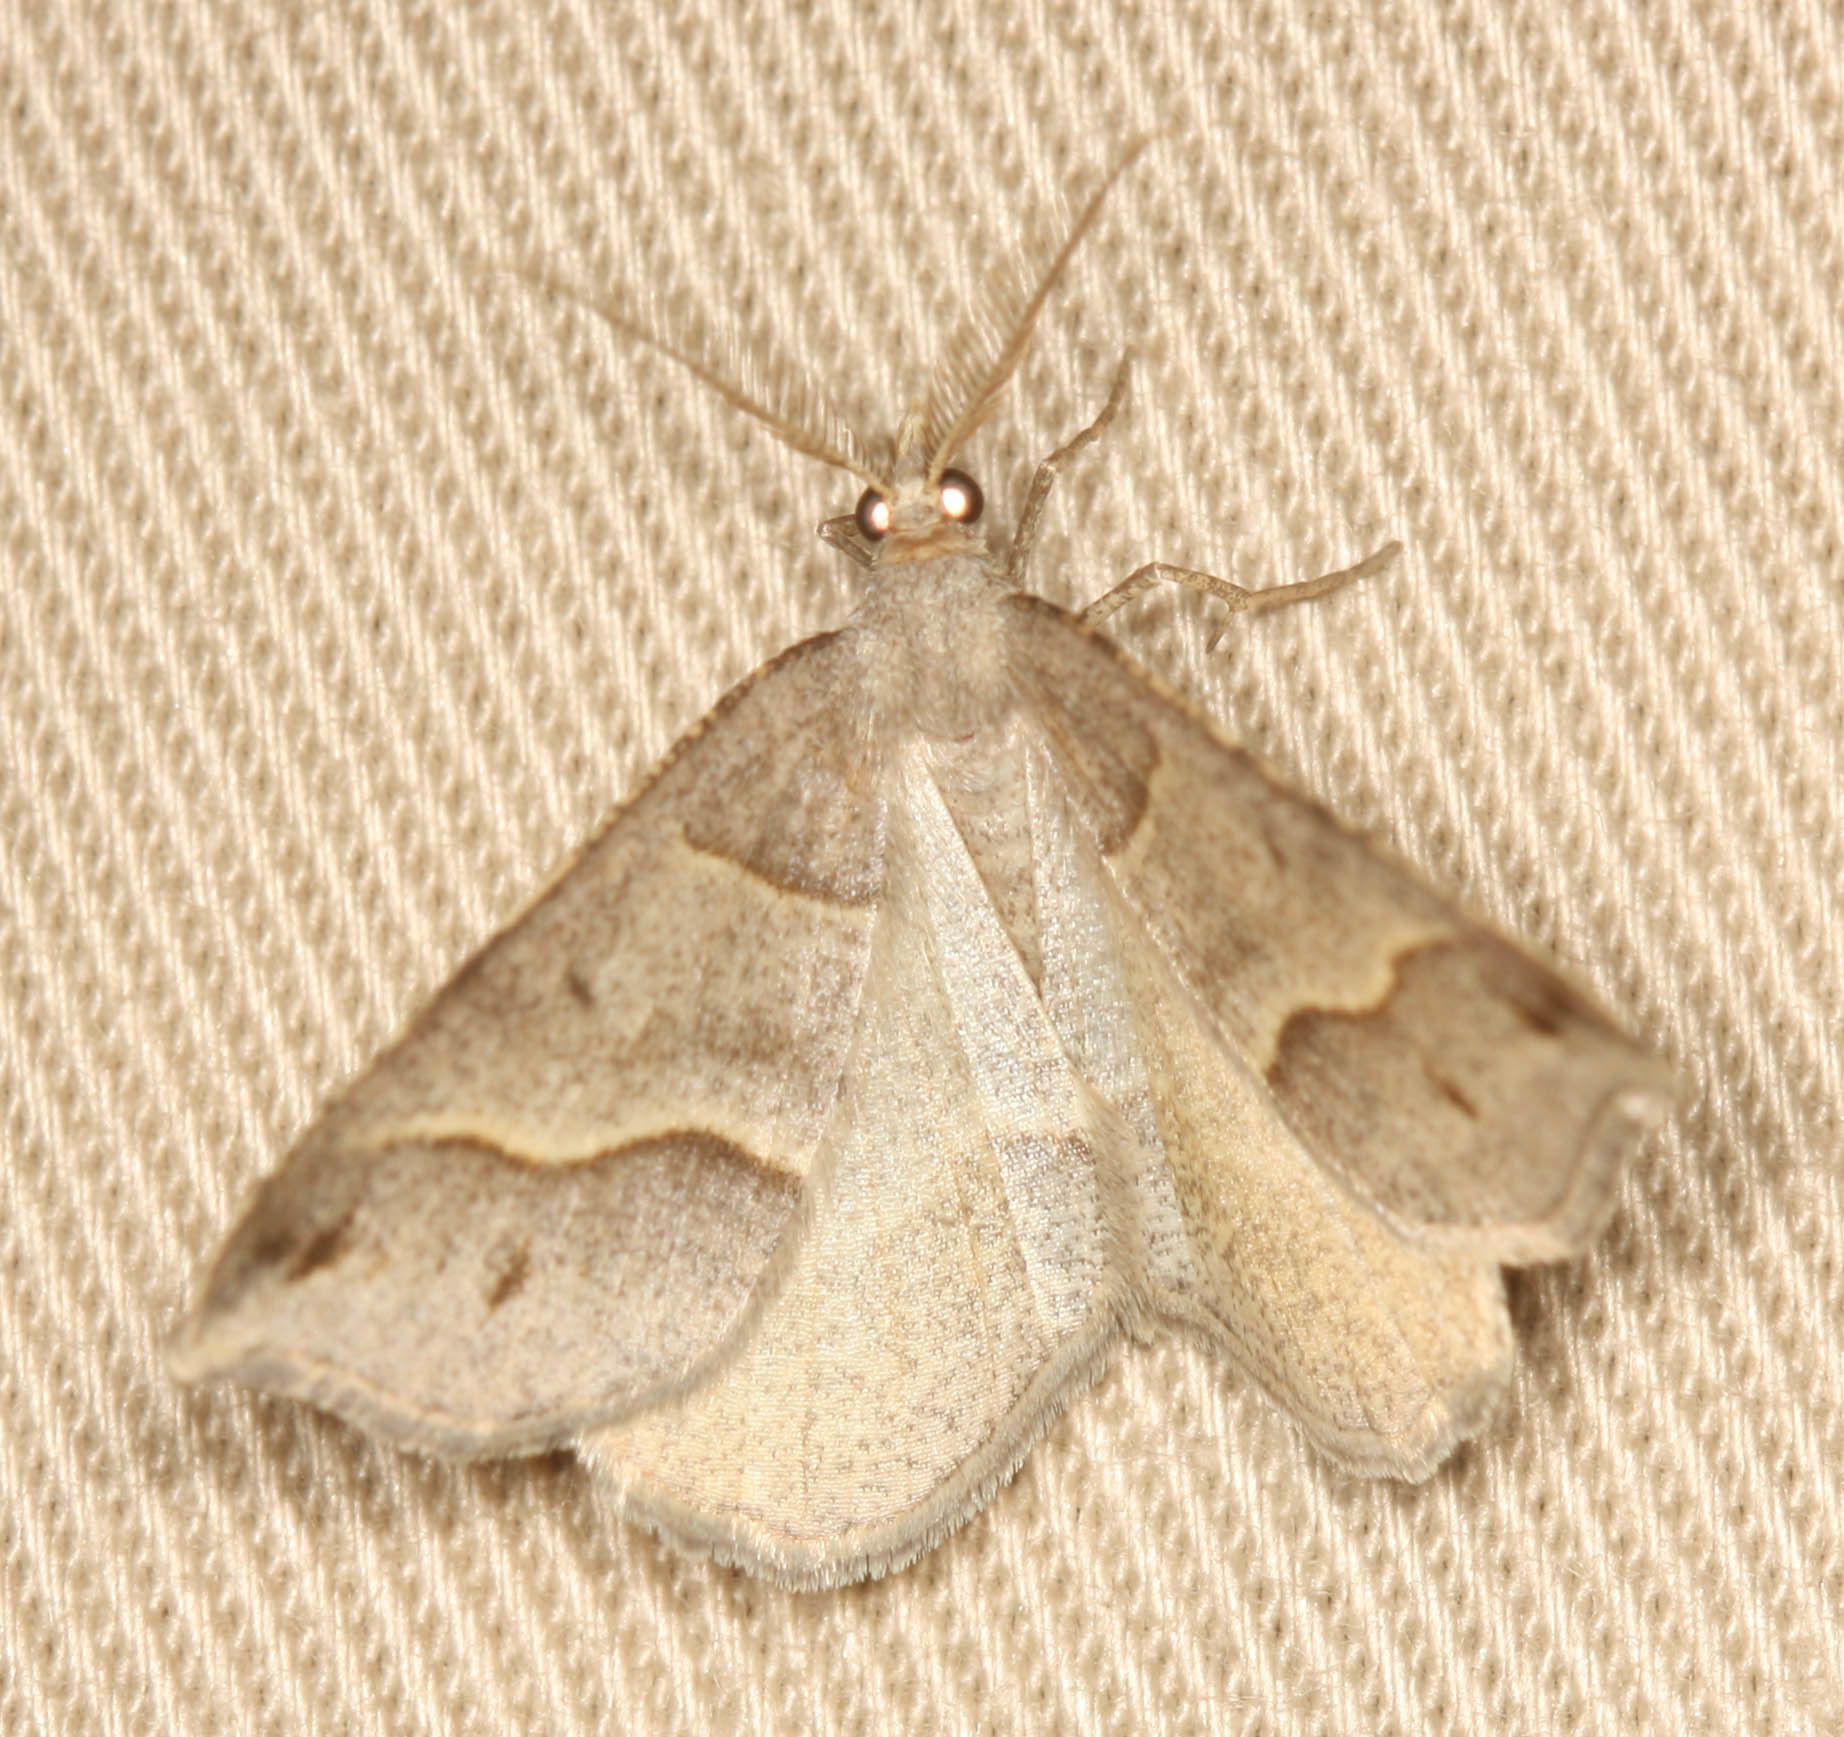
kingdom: Animalia
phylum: Arthropoda
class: Insecta
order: Lepidoptera
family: Geometridae
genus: Macaria
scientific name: Macaria lorquinaria
